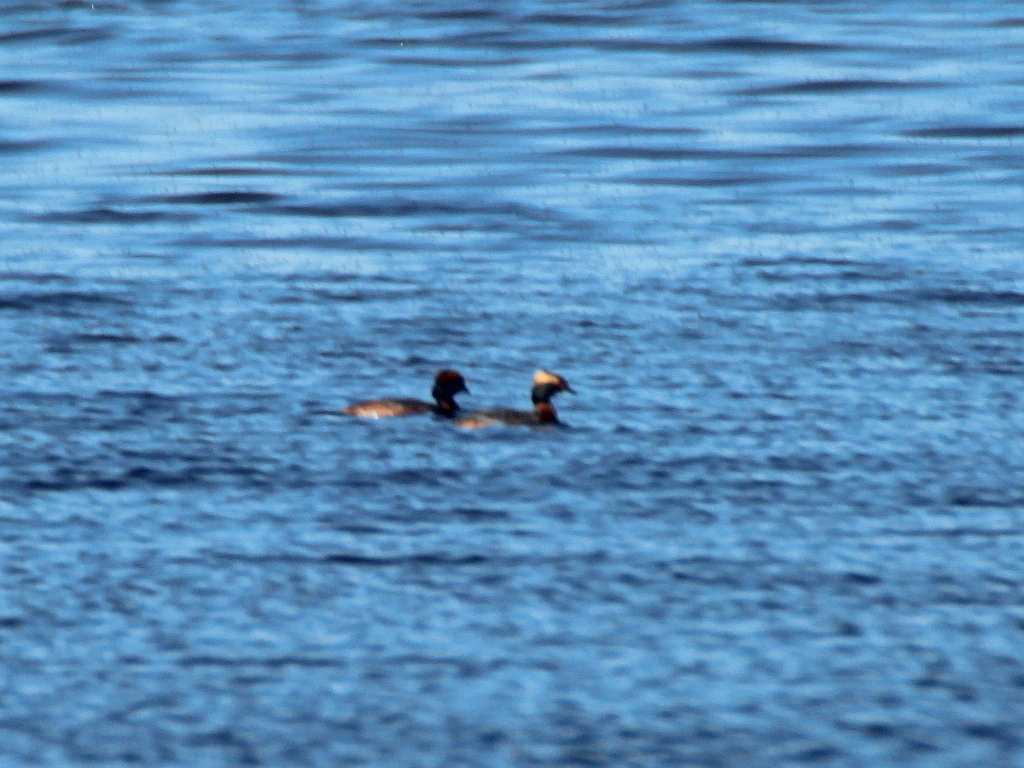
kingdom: Animalia
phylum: Chordata
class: Aves
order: Podicipediformes
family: Podicipedidae
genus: Podiceps
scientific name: Podiceps auritus
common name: Horned grebe
